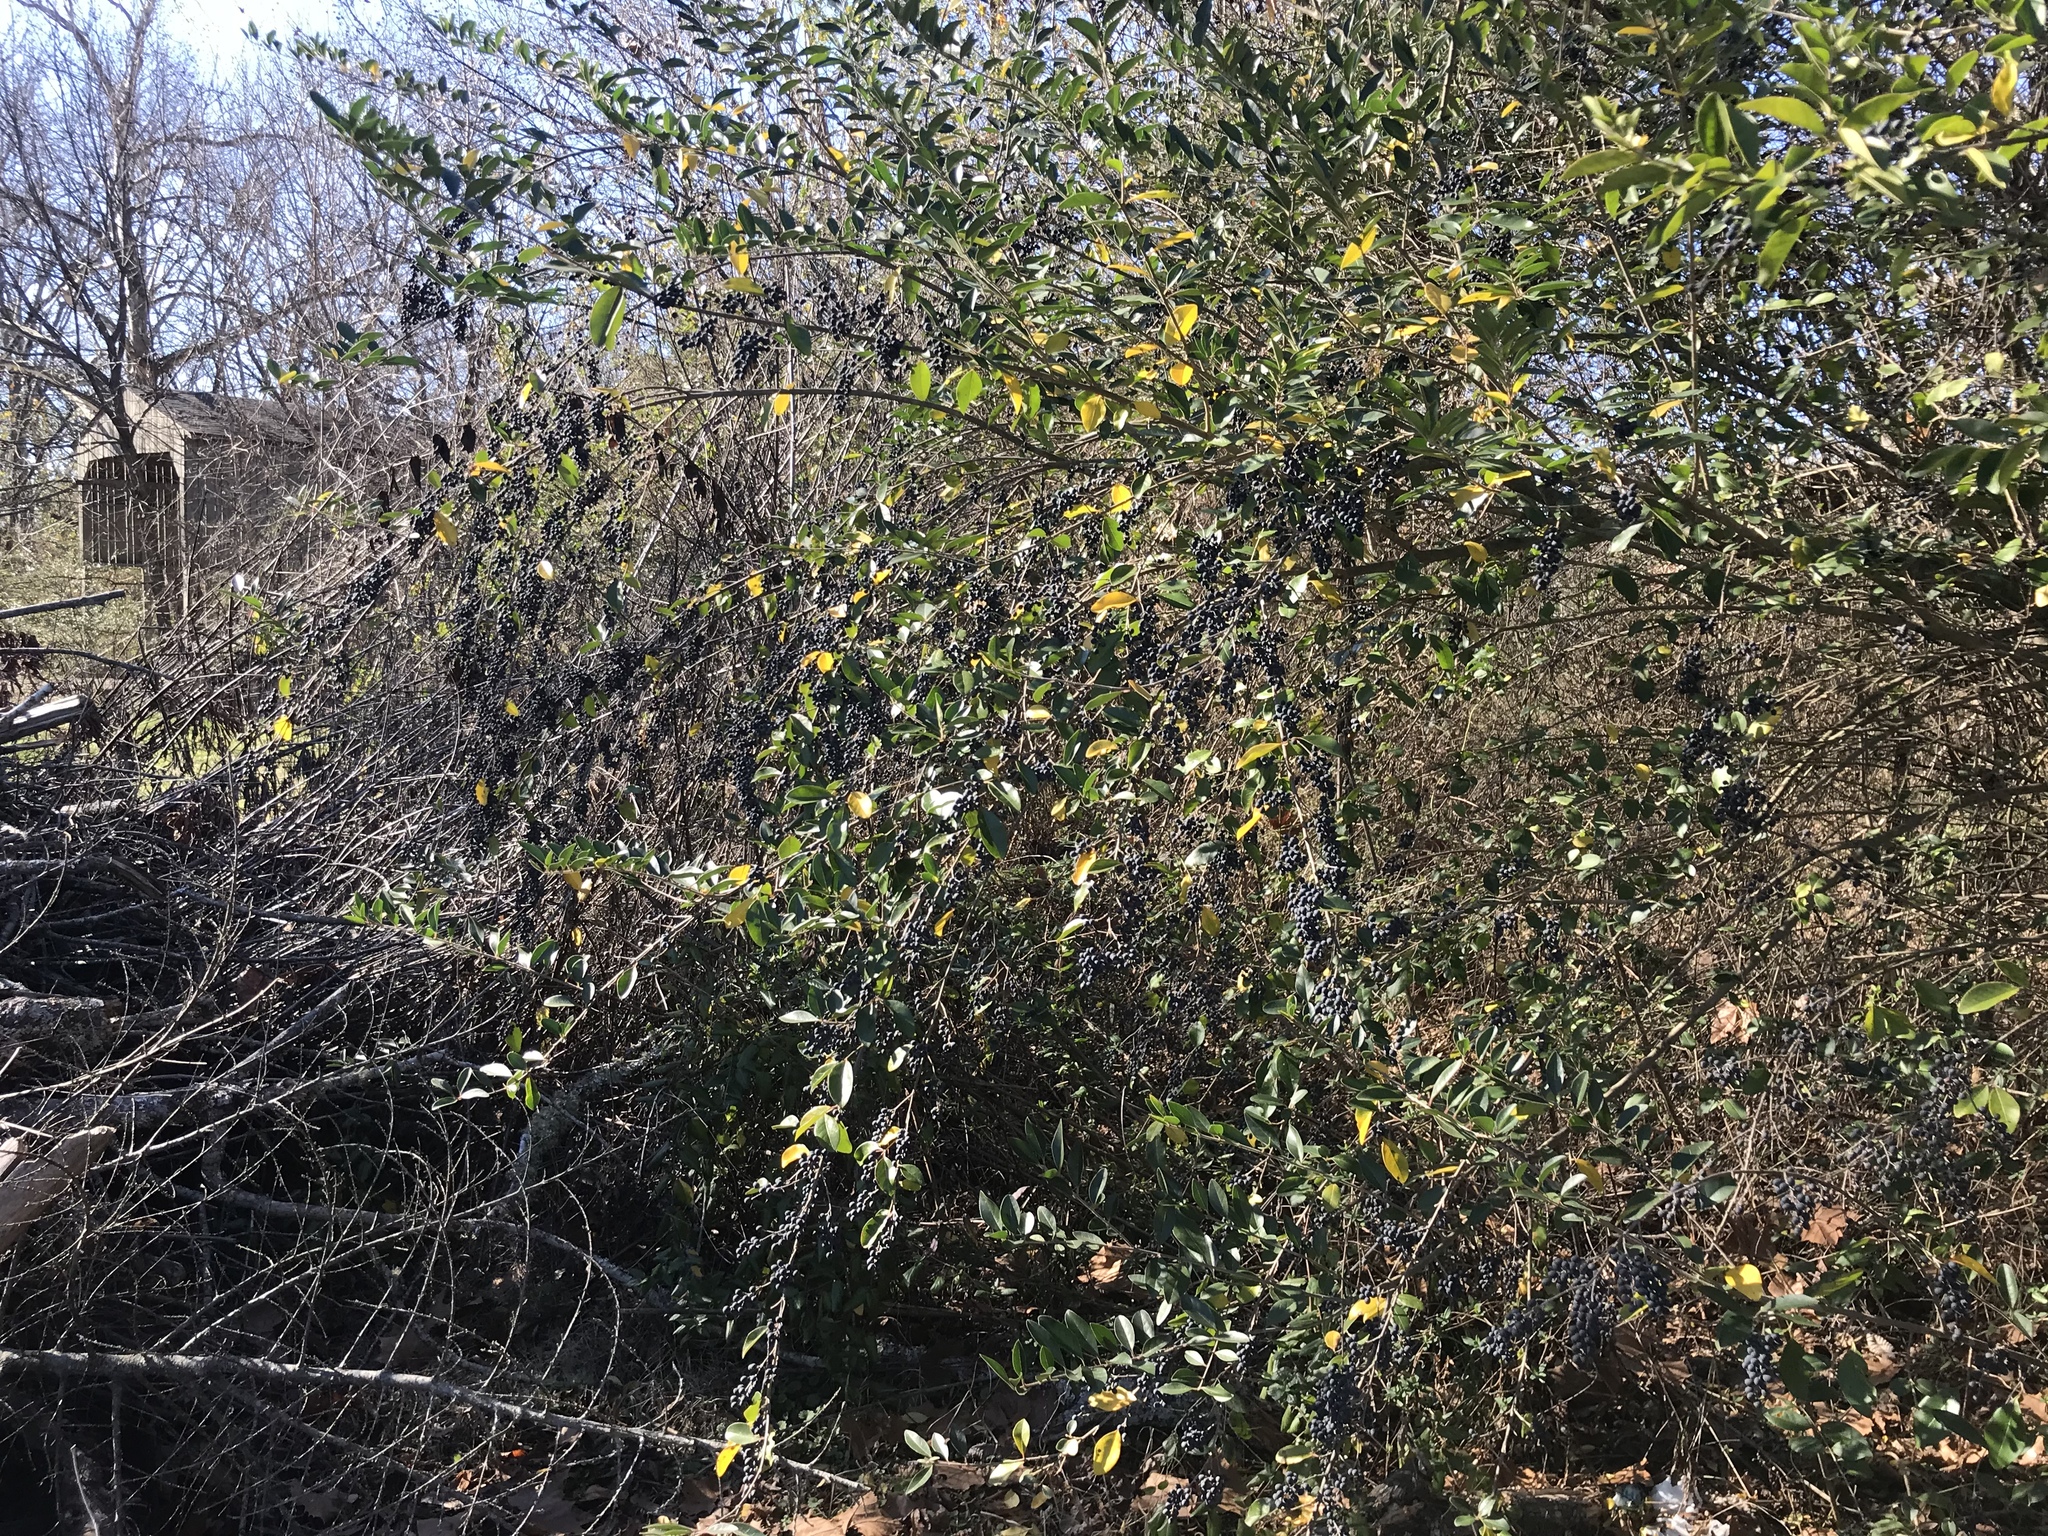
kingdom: Plantae
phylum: Tracheophyta
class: Magnoliopsida
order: Lamiales
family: Oleaceae
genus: Ligustrum
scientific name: Ligustrum sinense
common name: Chinese privet
